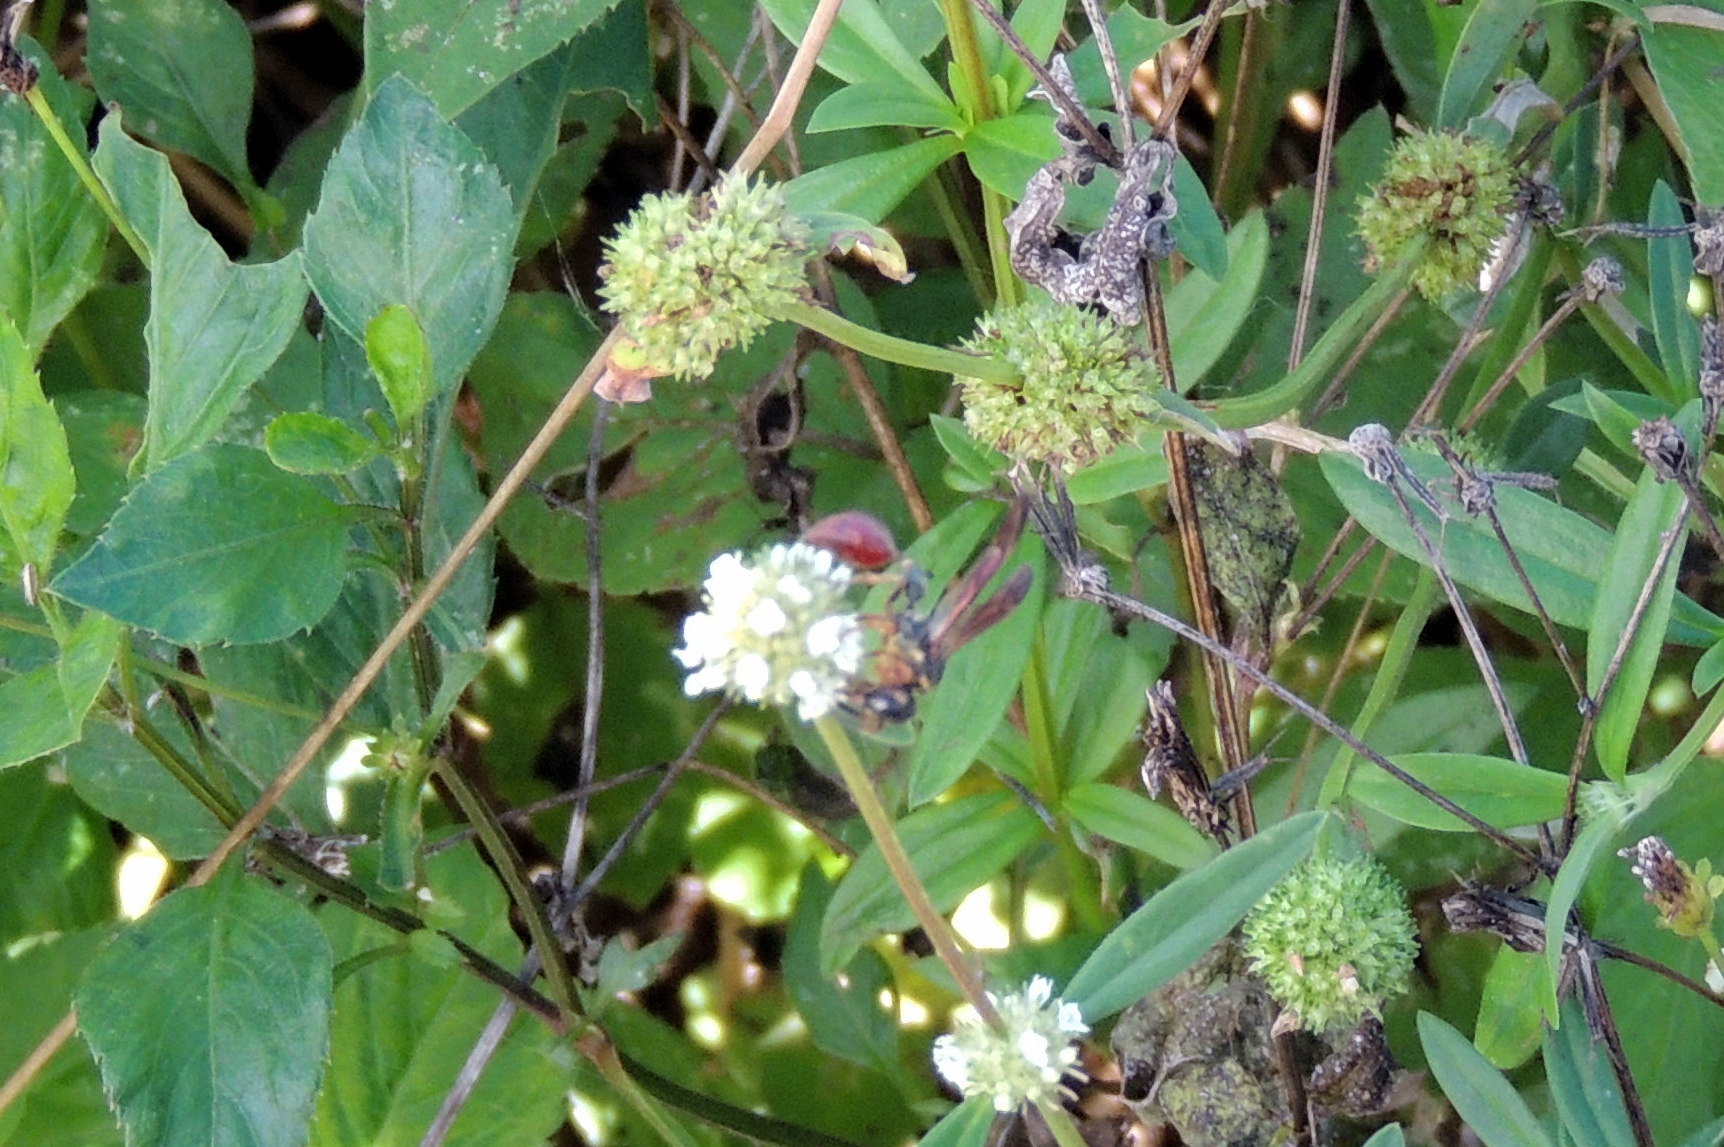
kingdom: Animalia
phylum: Arthropoda
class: Insecta
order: Hymenoptera
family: Eumenidae
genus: Zethus
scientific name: Zethus slossonae
